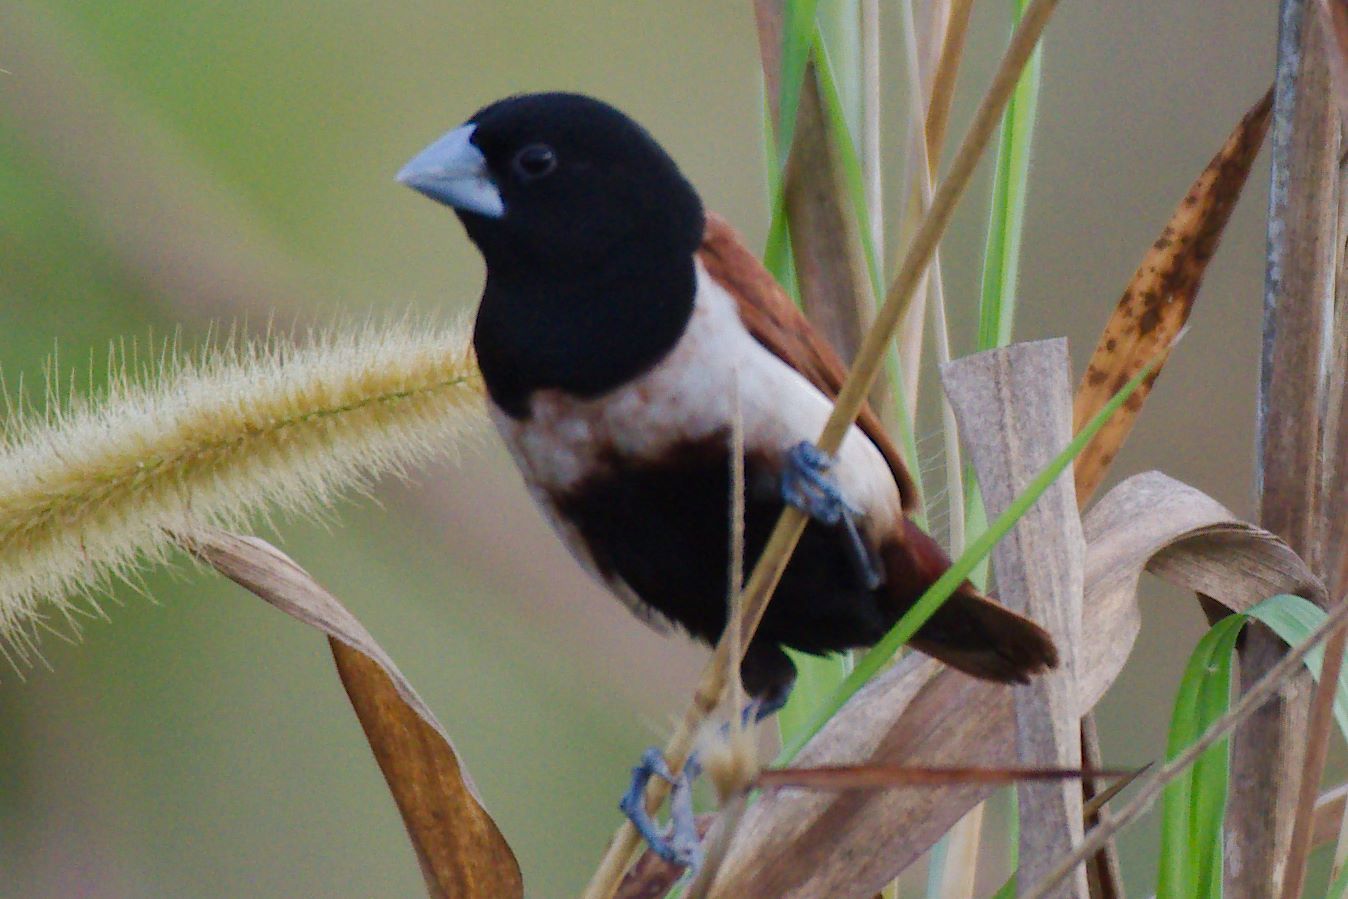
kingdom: Animalia
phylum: Chordata
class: Aves
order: Passeriformes
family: Estrildidae
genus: Lonchura
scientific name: Lonchura malacca
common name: Tricolored munia
